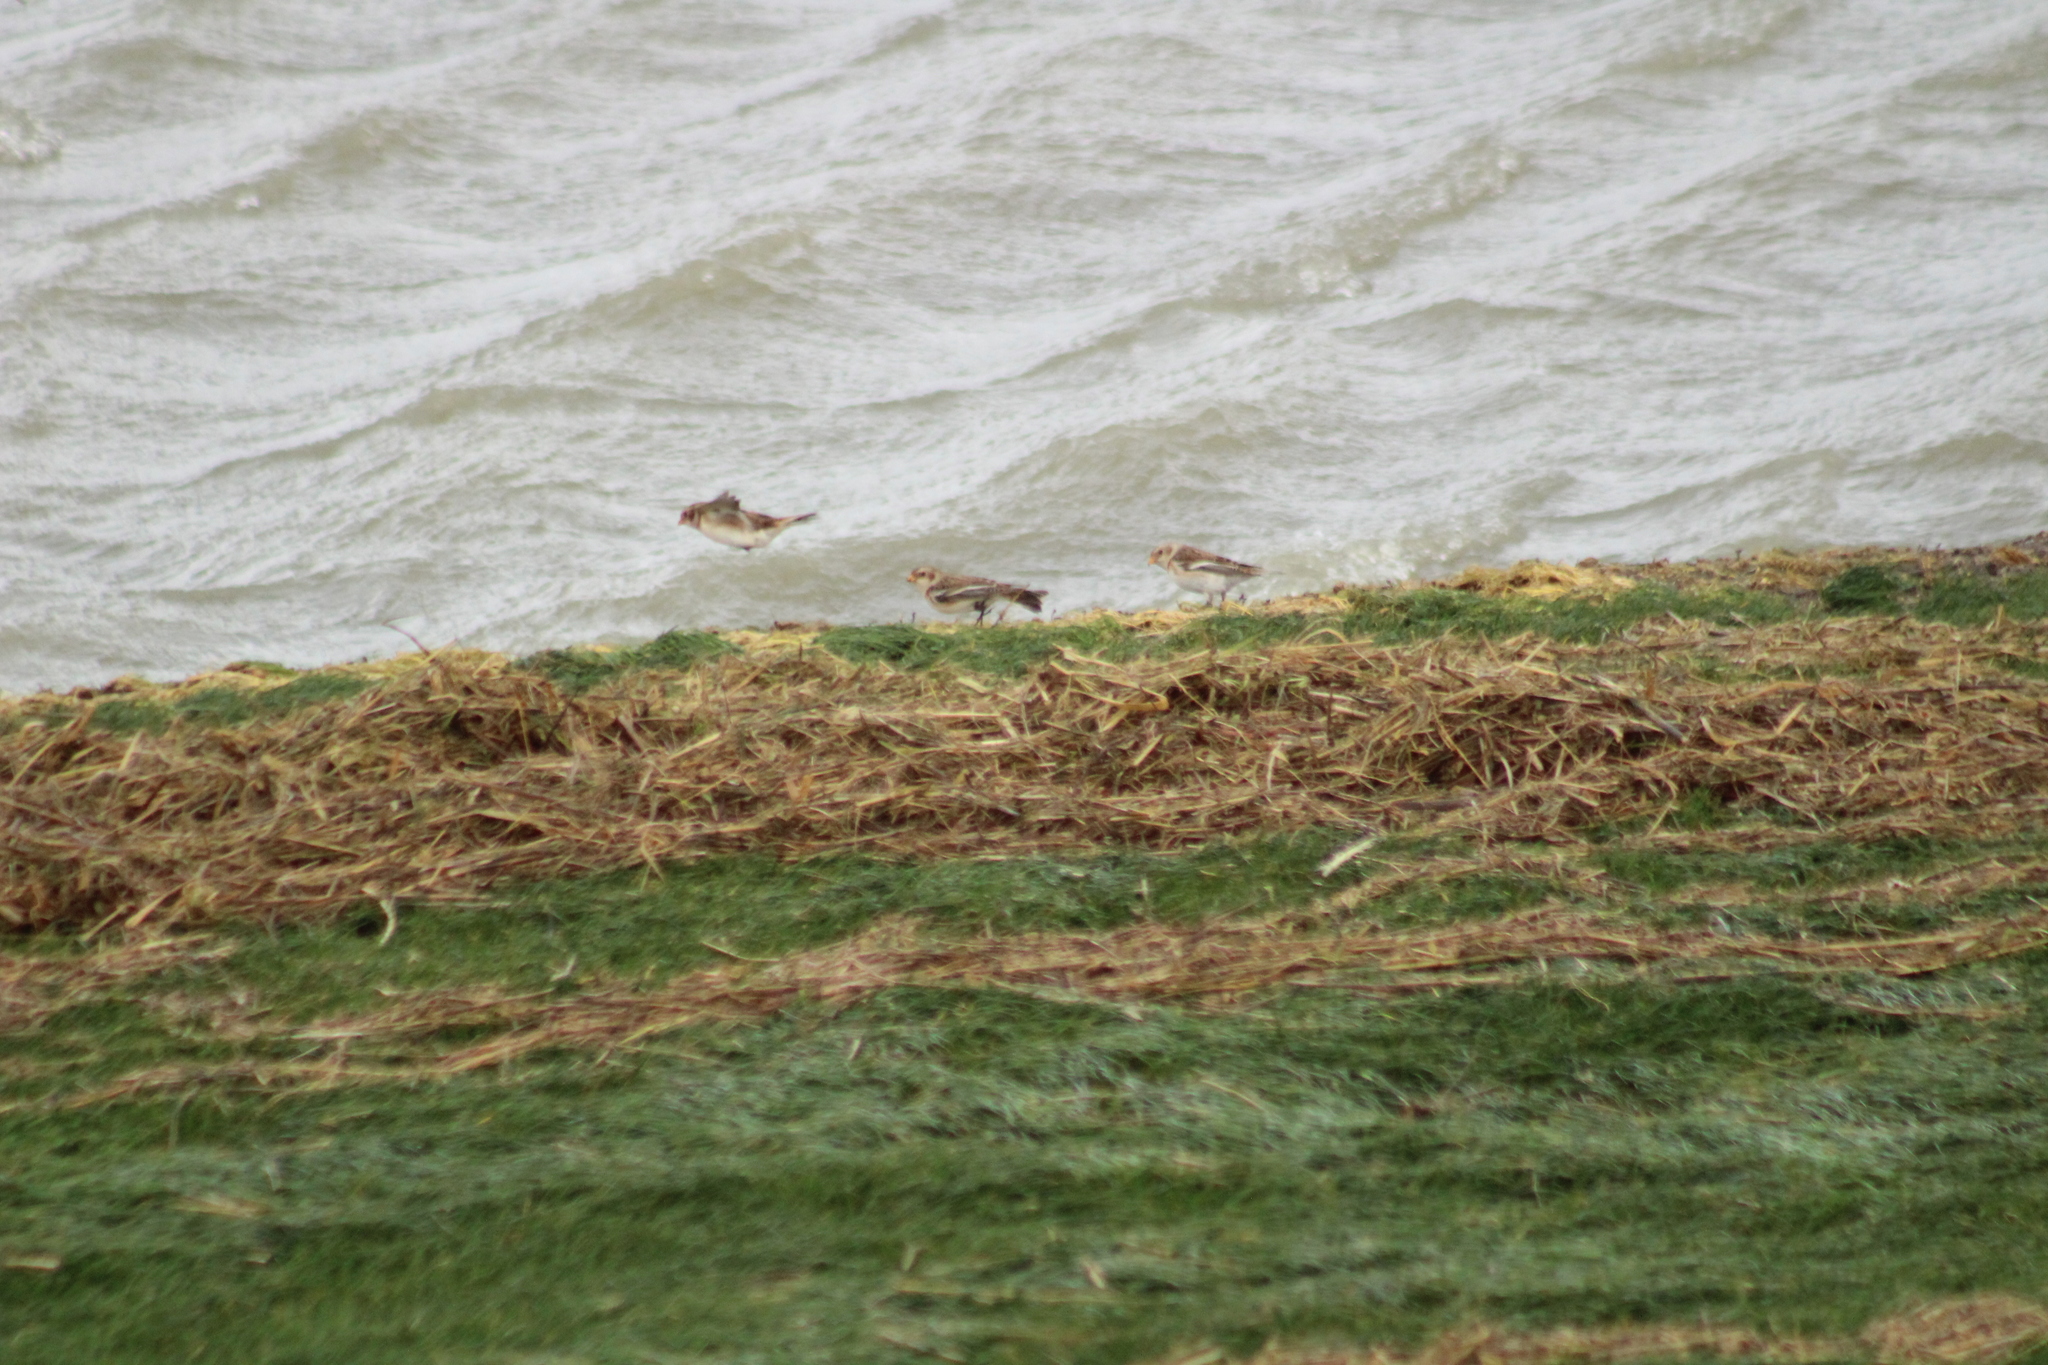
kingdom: Animalia
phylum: Chordata
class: Aves
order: Passeriformes
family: Calcariidae
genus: Plectrophenax
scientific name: Plectrophenax nivalis
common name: Snow bunting
